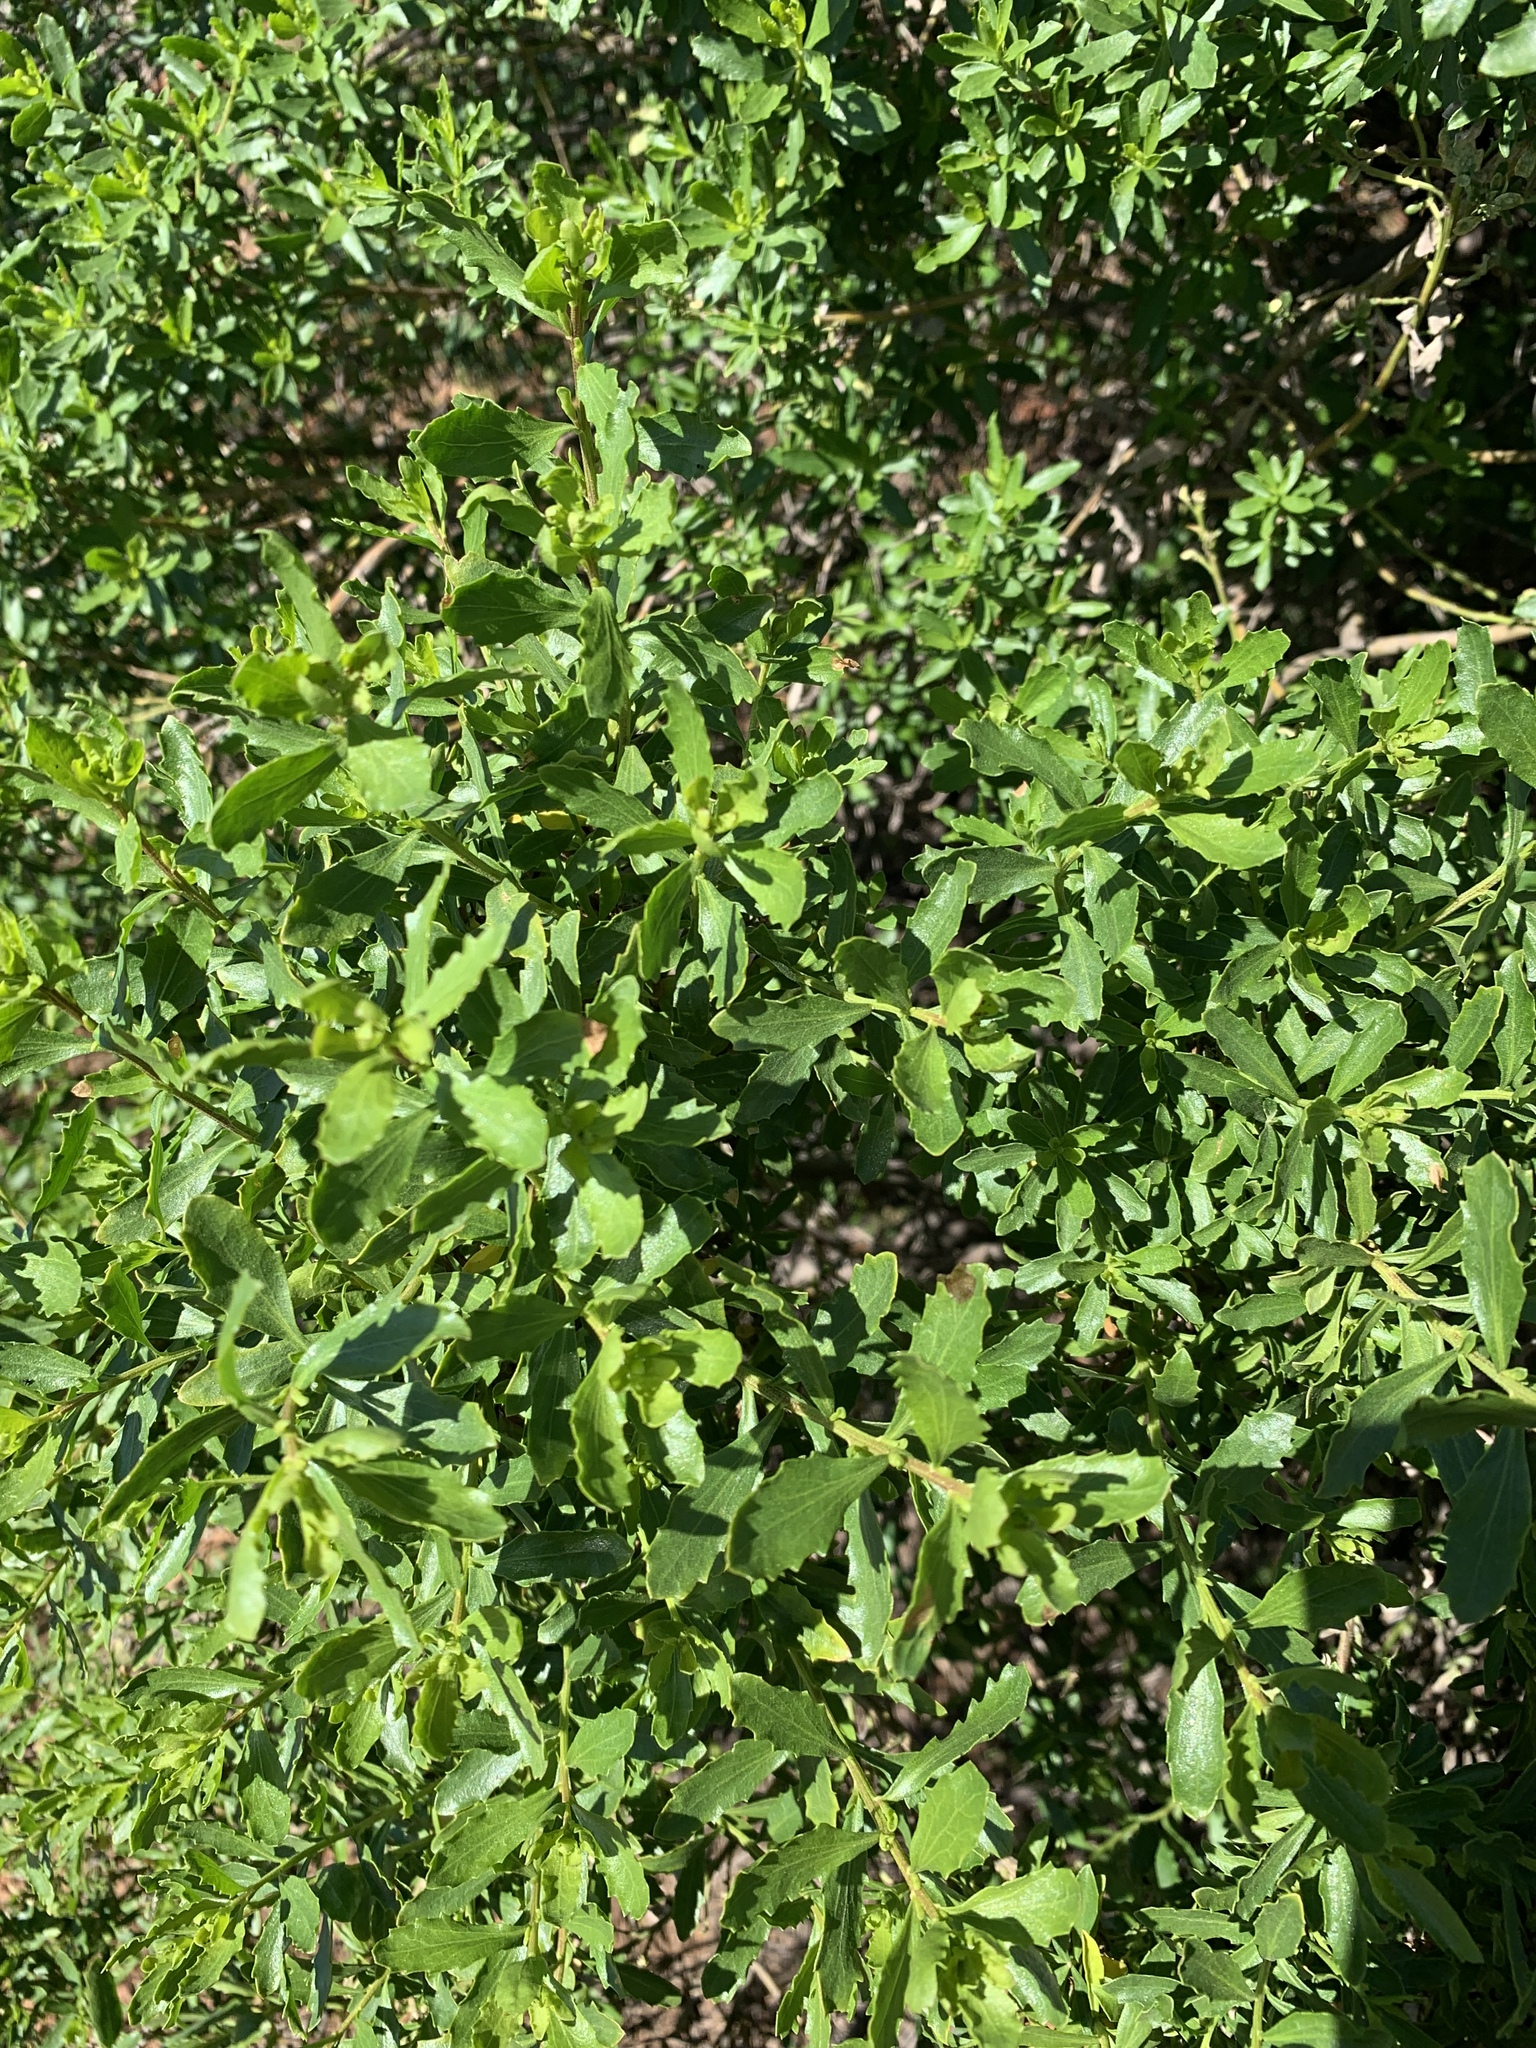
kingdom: Plantae
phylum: Tracheophyta
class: Magnoliopsida
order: Asterales
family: Asteraceae
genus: Baccharis
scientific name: Baccharis pilularis
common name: Coyotebrush
